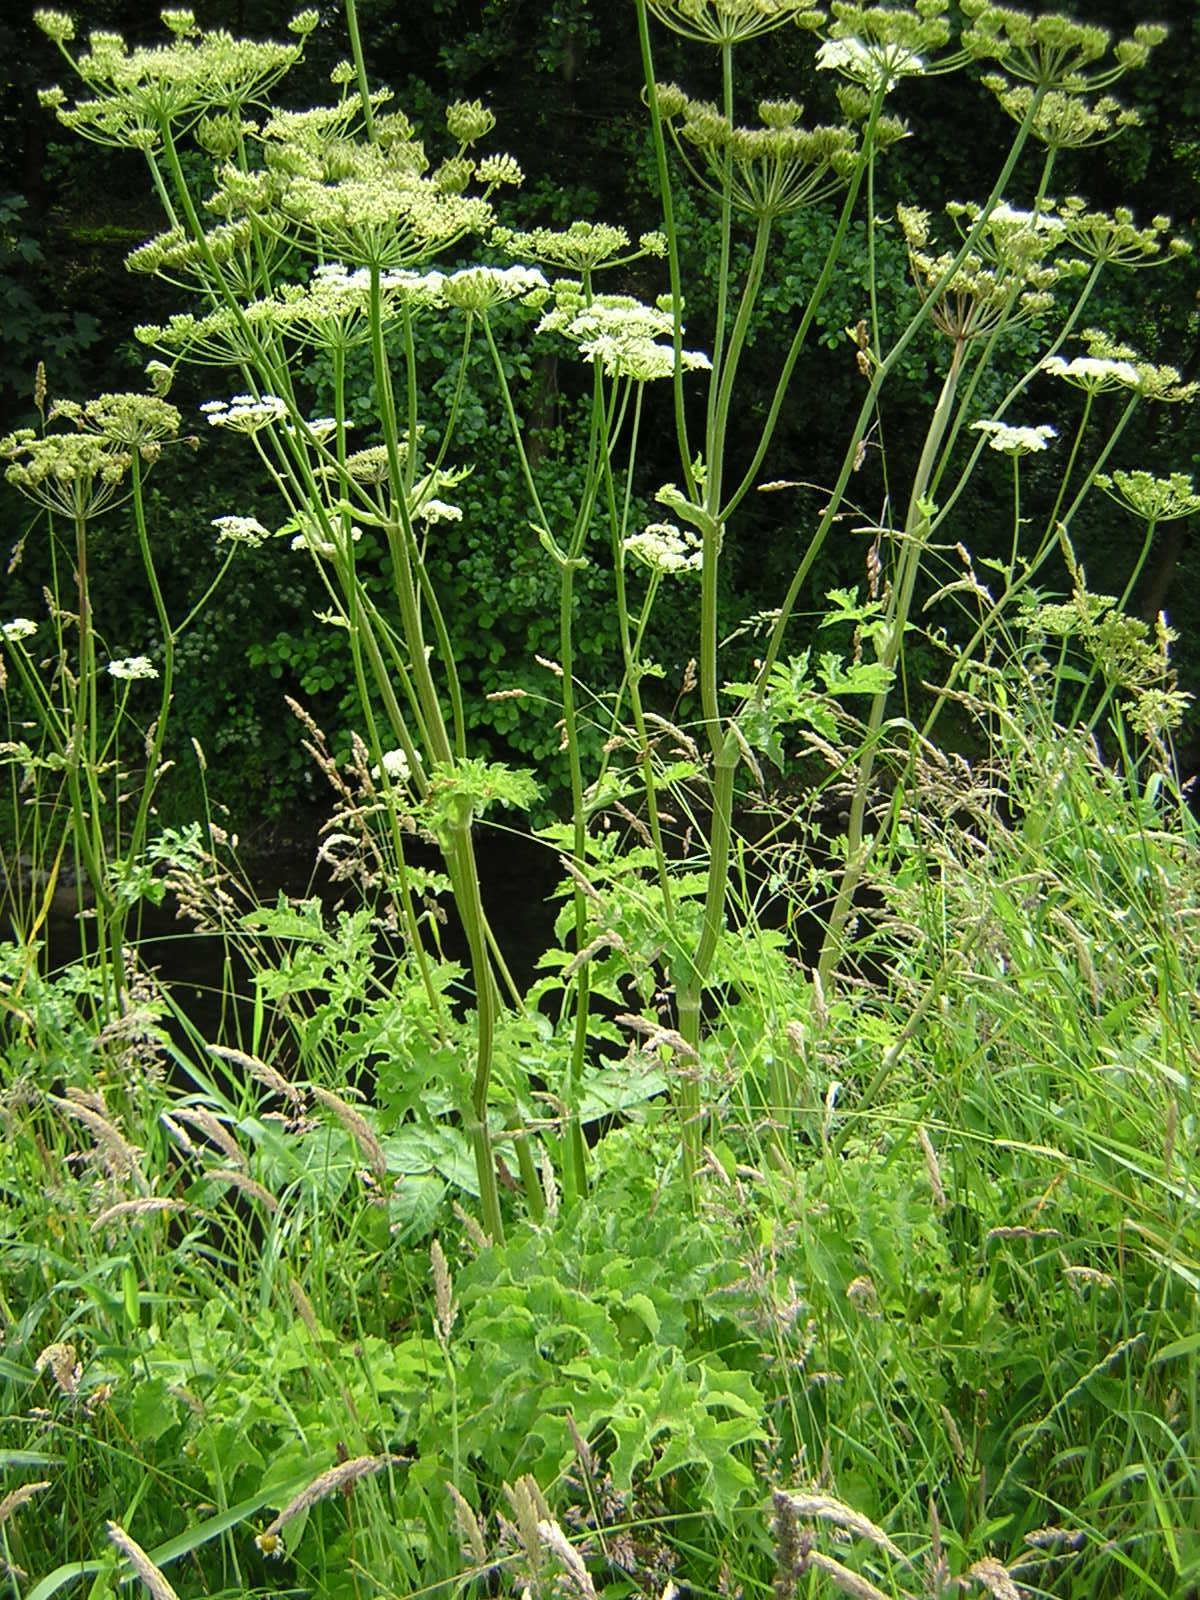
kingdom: Plantae
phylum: Tracheophyta
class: Magnoliopsida
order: Apiales
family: Apiaceae
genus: Heracleum
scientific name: Heracleum sphondylium
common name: Hogweed
